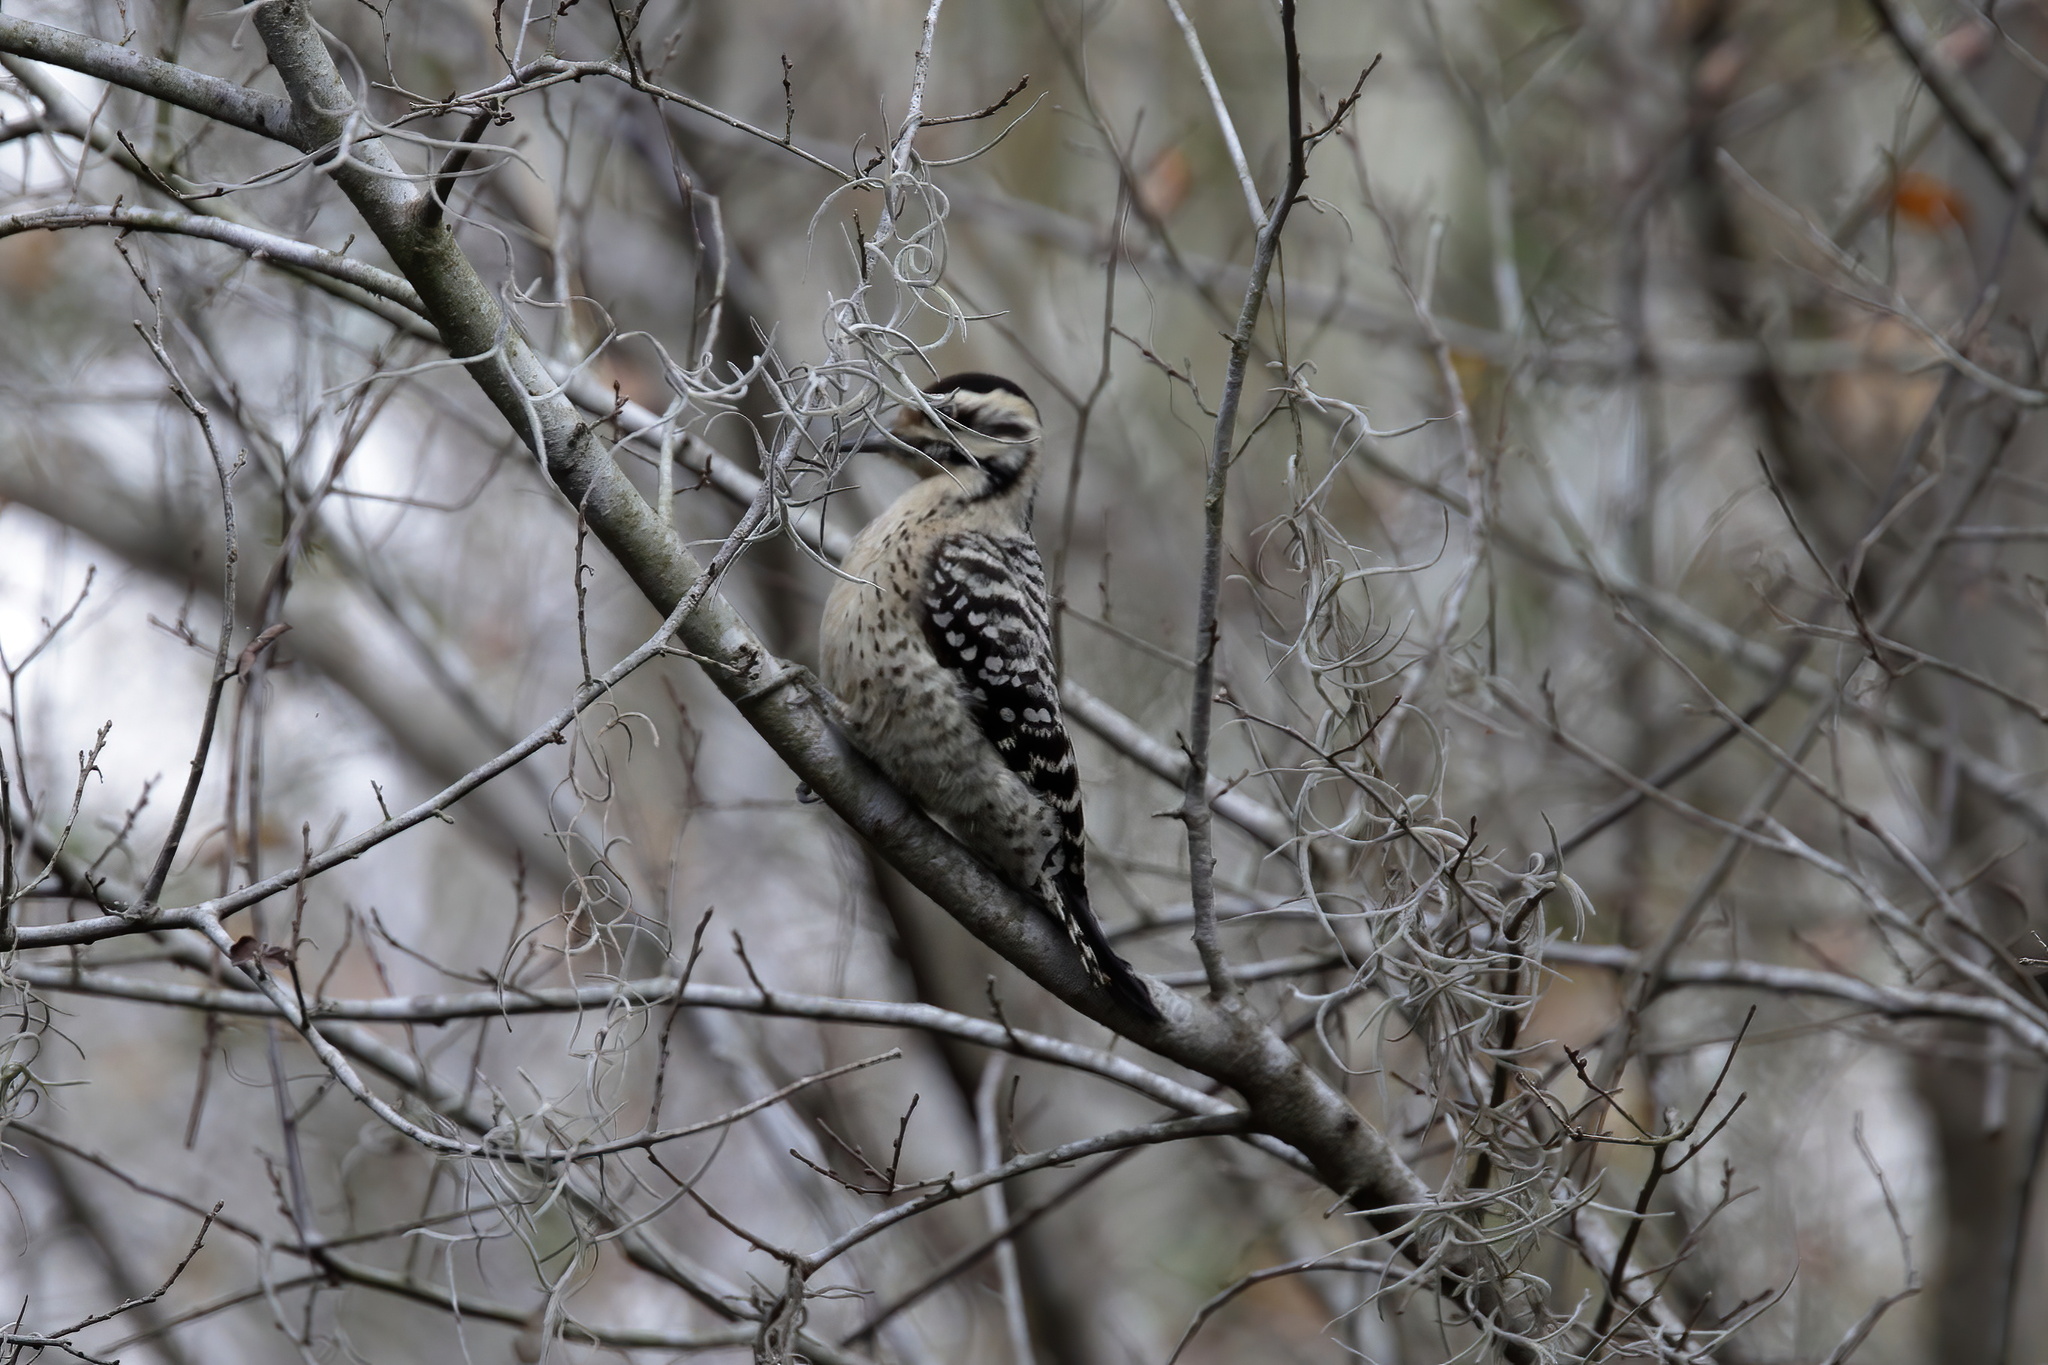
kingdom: Animalia
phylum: Chordata
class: Aves
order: Piciformes
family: Picidae
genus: Dryobates
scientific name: Dryobates scalaris
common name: Ladder-backed woodpecker
